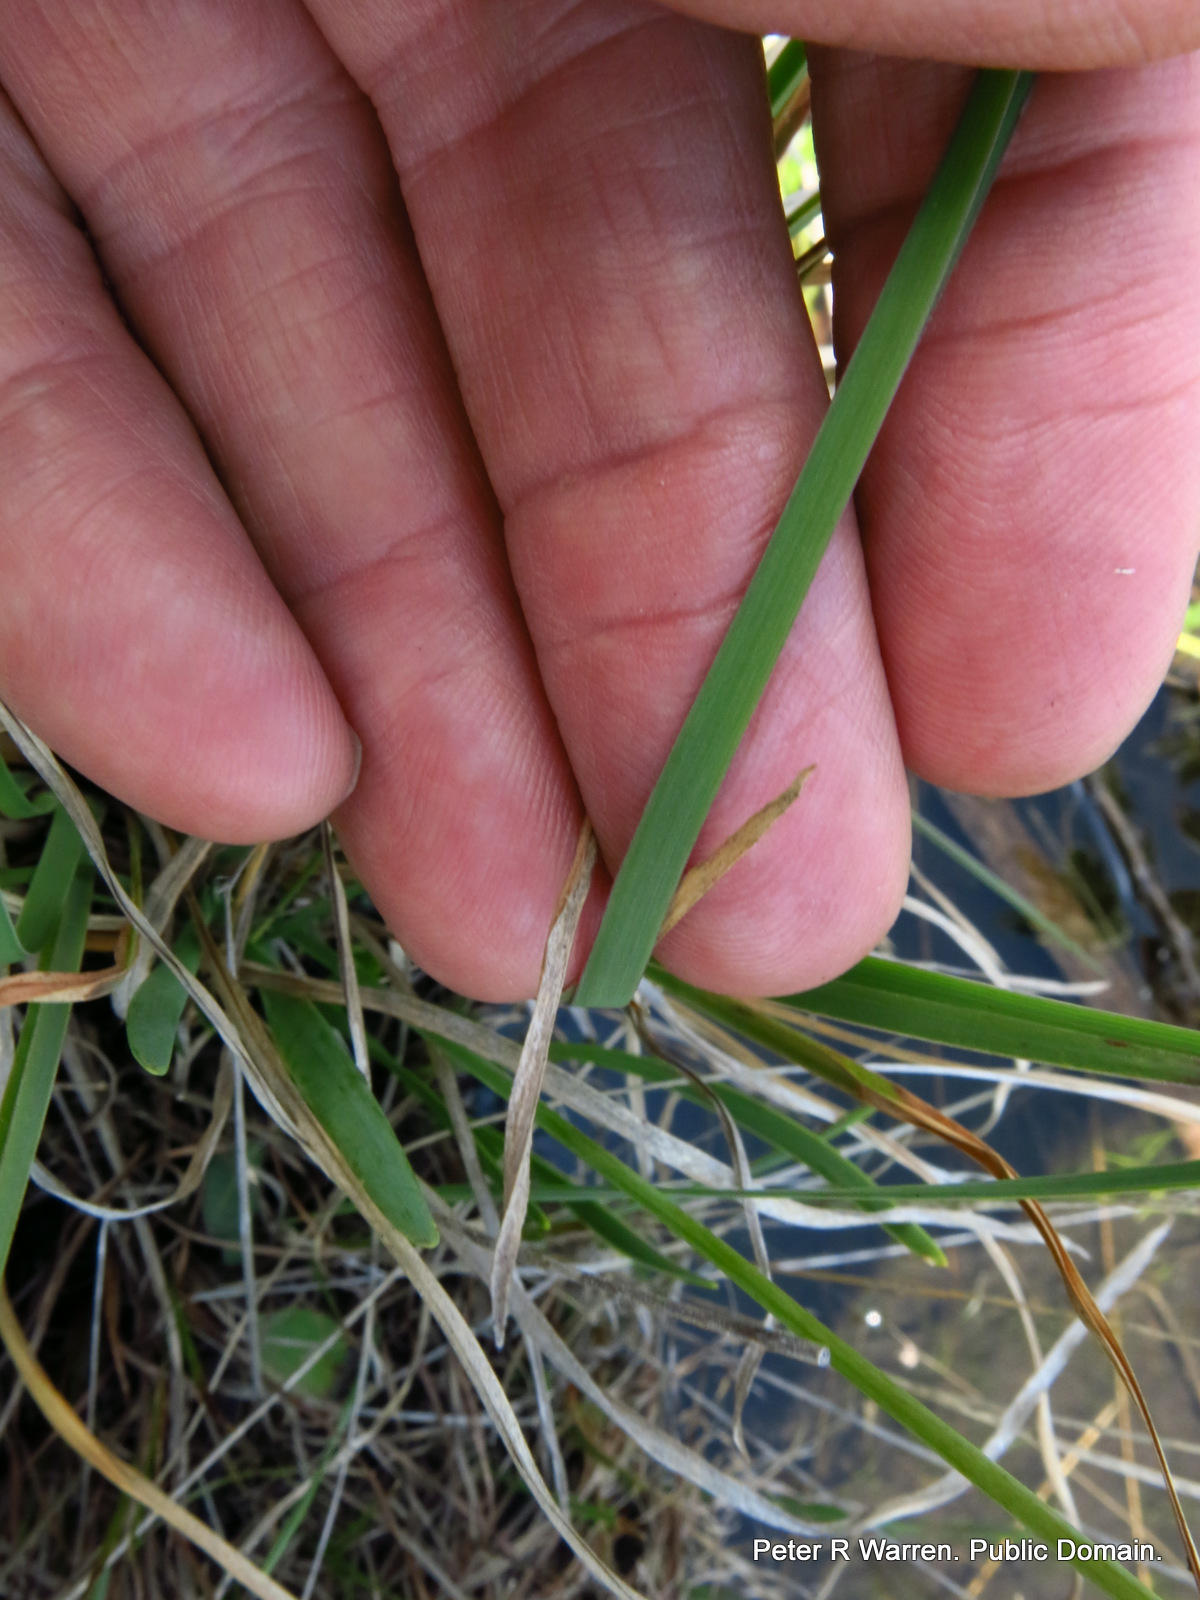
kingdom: Plantae
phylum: Tracheophyta
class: Liliopsida
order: Asparagales
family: Amaryllidaceae
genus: Tulbaghia
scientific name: Tulbaghia natalensis
